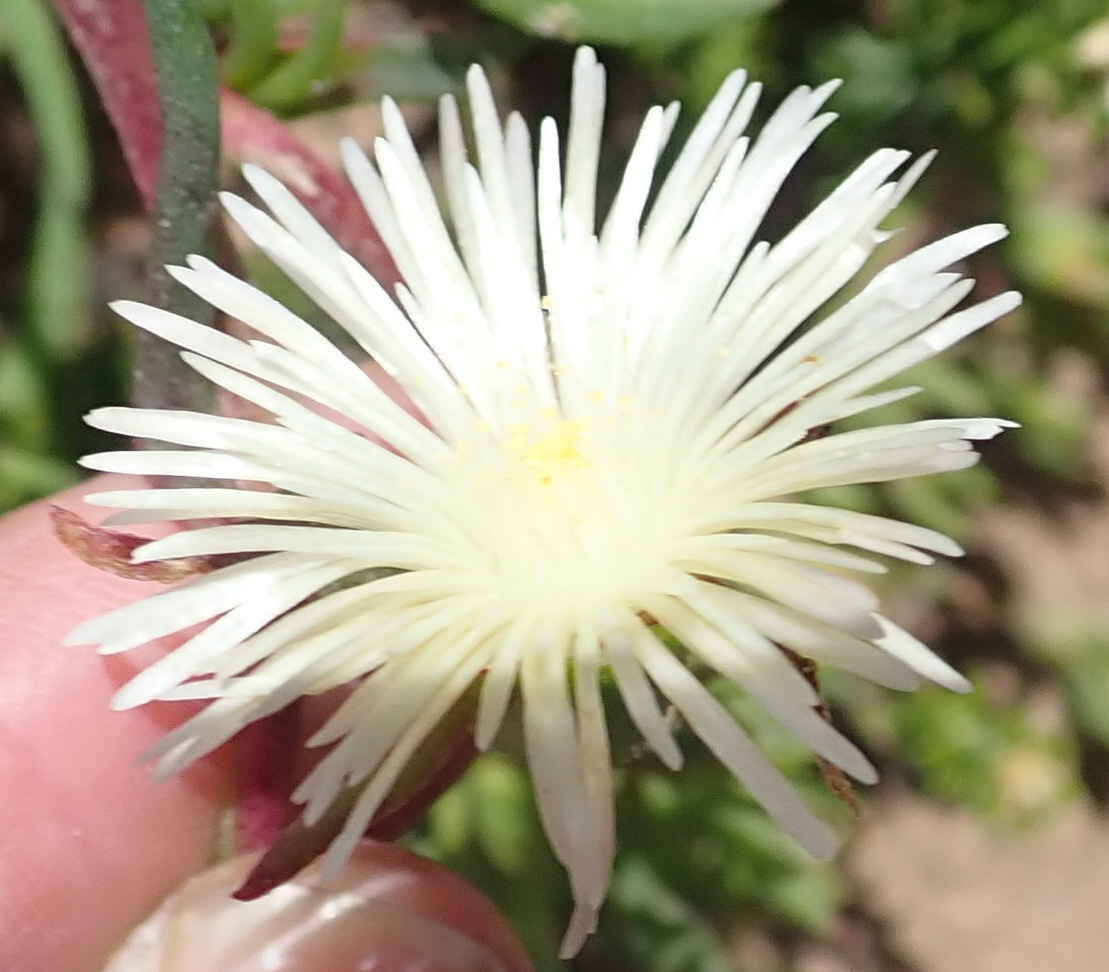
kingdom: Plantae
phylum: Tracheophyta
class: Magnoliopsida
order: Caryophyllales
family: Aizoaceae
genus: Mesembryanthemum
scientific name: Mesembryanthemum canaliculatum
